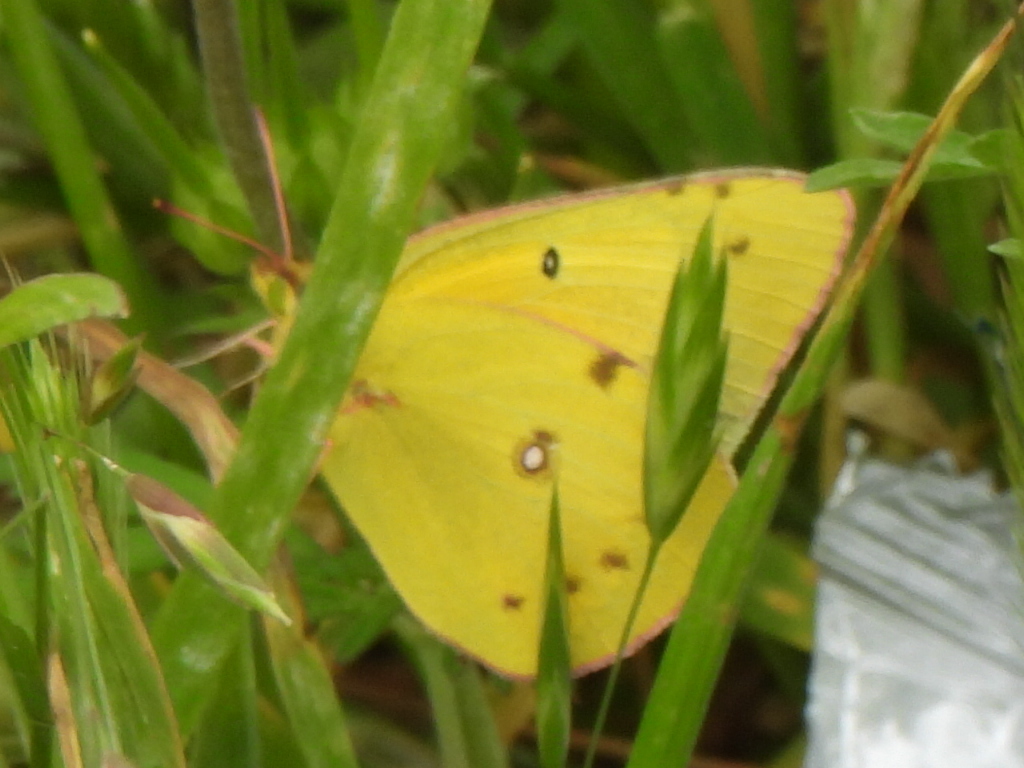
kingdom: Animalia
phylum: Arthropoda
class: Insecta
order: Lepidoptera
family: Pieridae
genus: Colias
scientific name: Colias eurytheme
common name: Alfalfa butterfly
